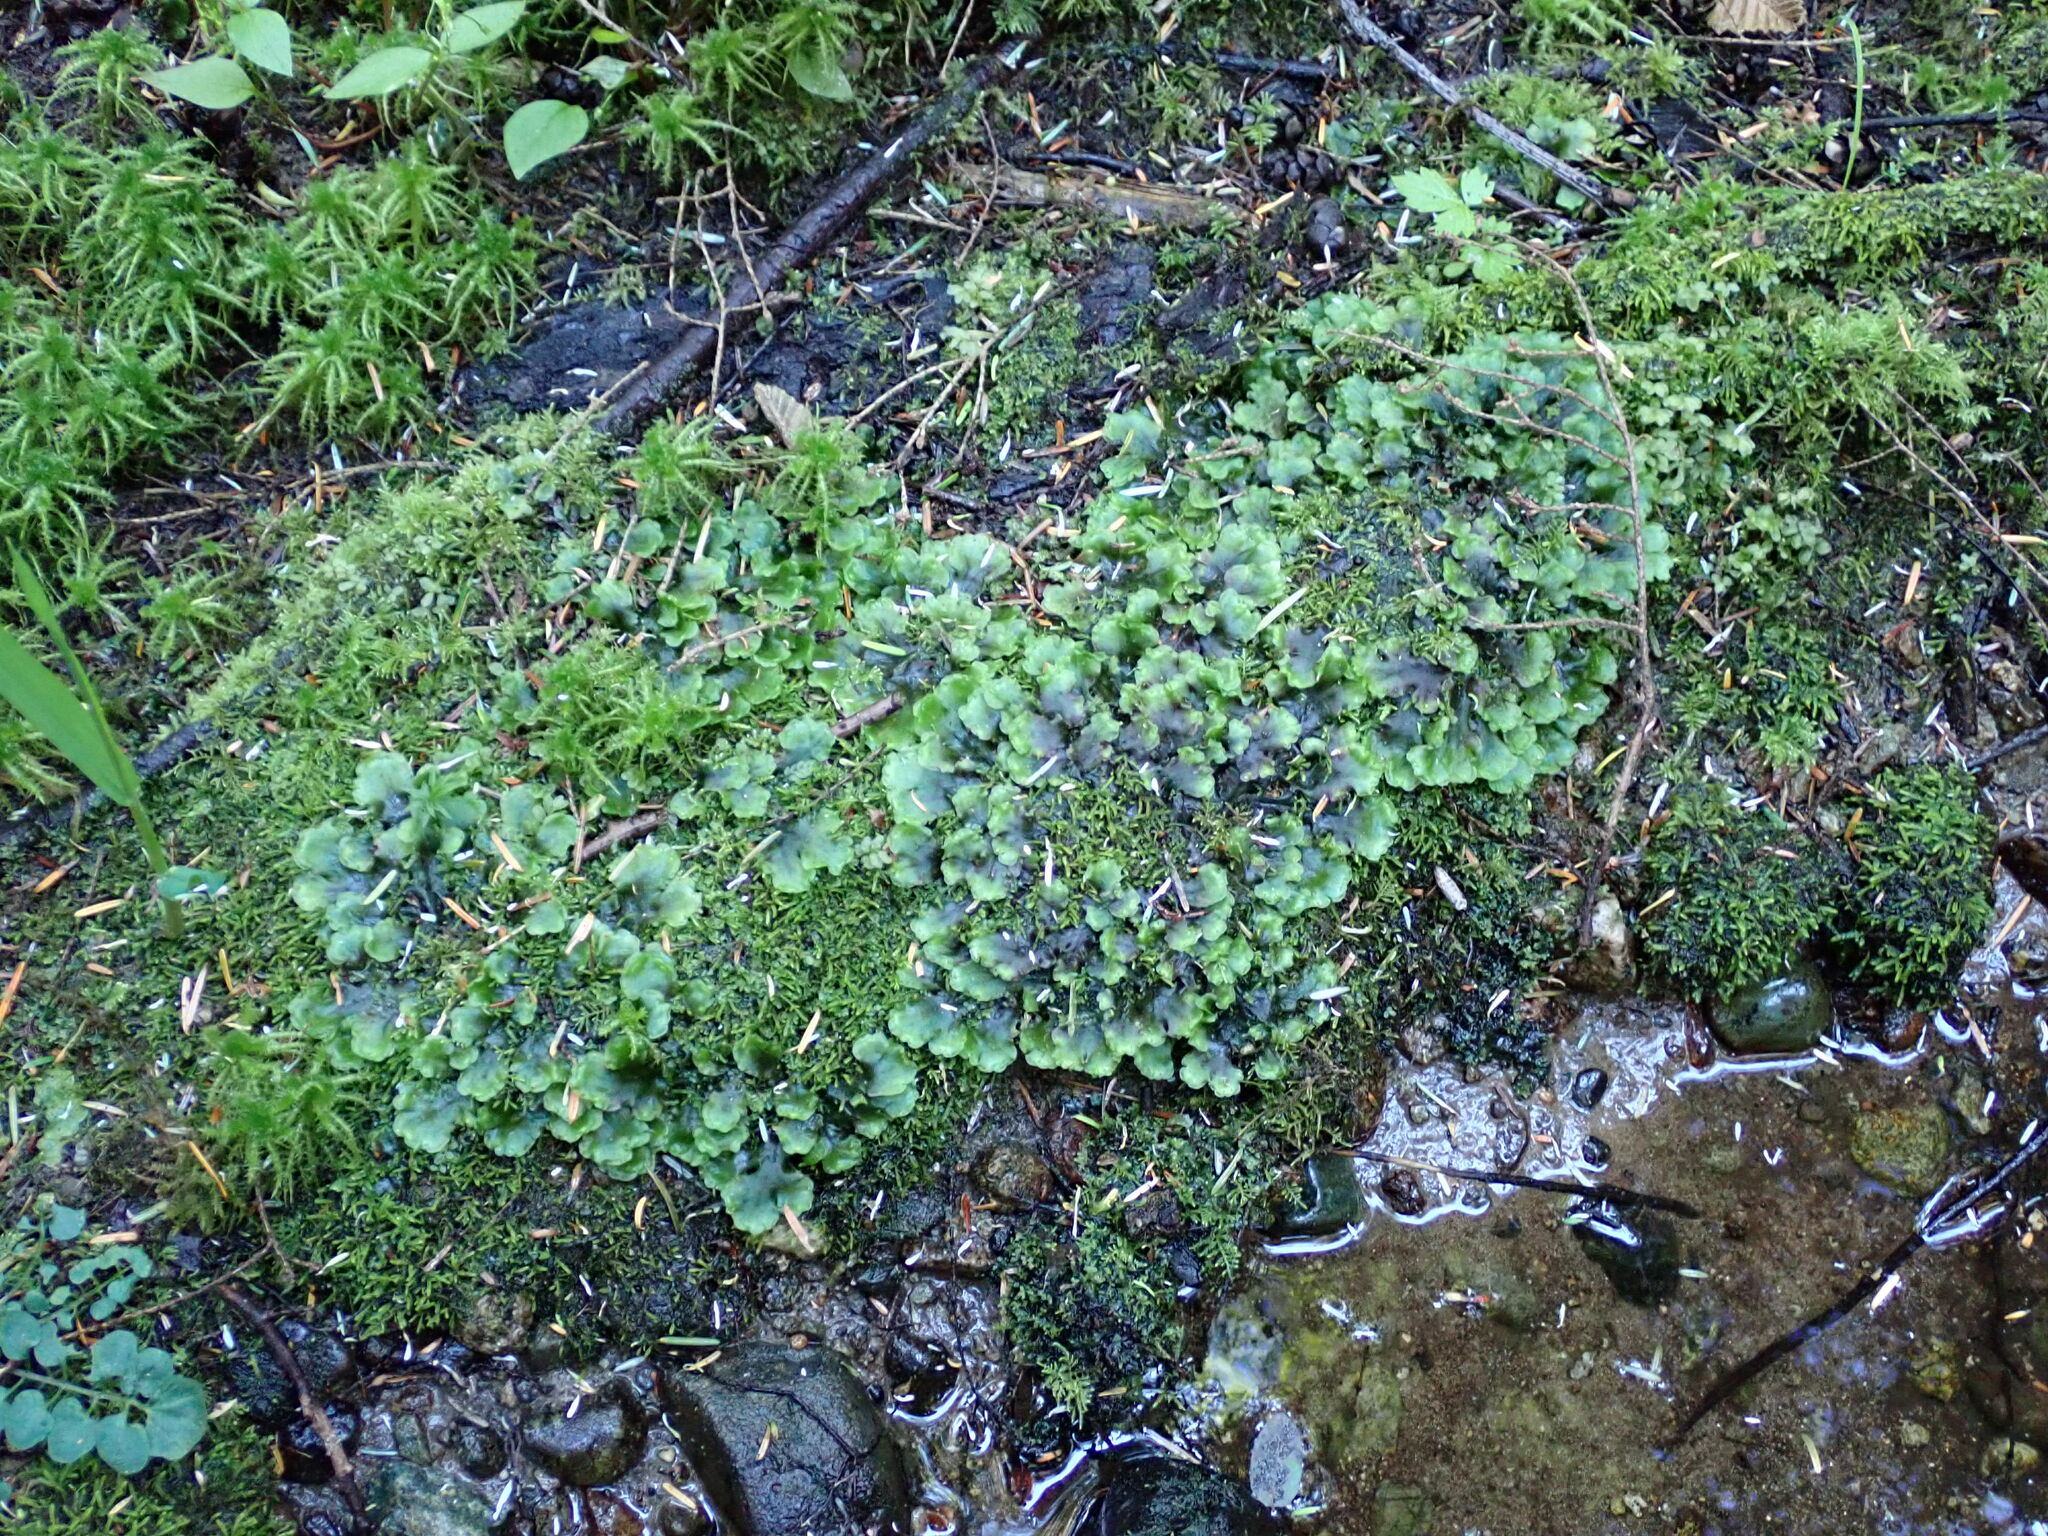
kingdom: Plantae
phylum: Marchantiophyta
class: Jungermanniopsida
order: Pelliales
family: Pelliaceae
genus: Pellia
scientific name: Pellia neesiana
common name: Nees  pellia
